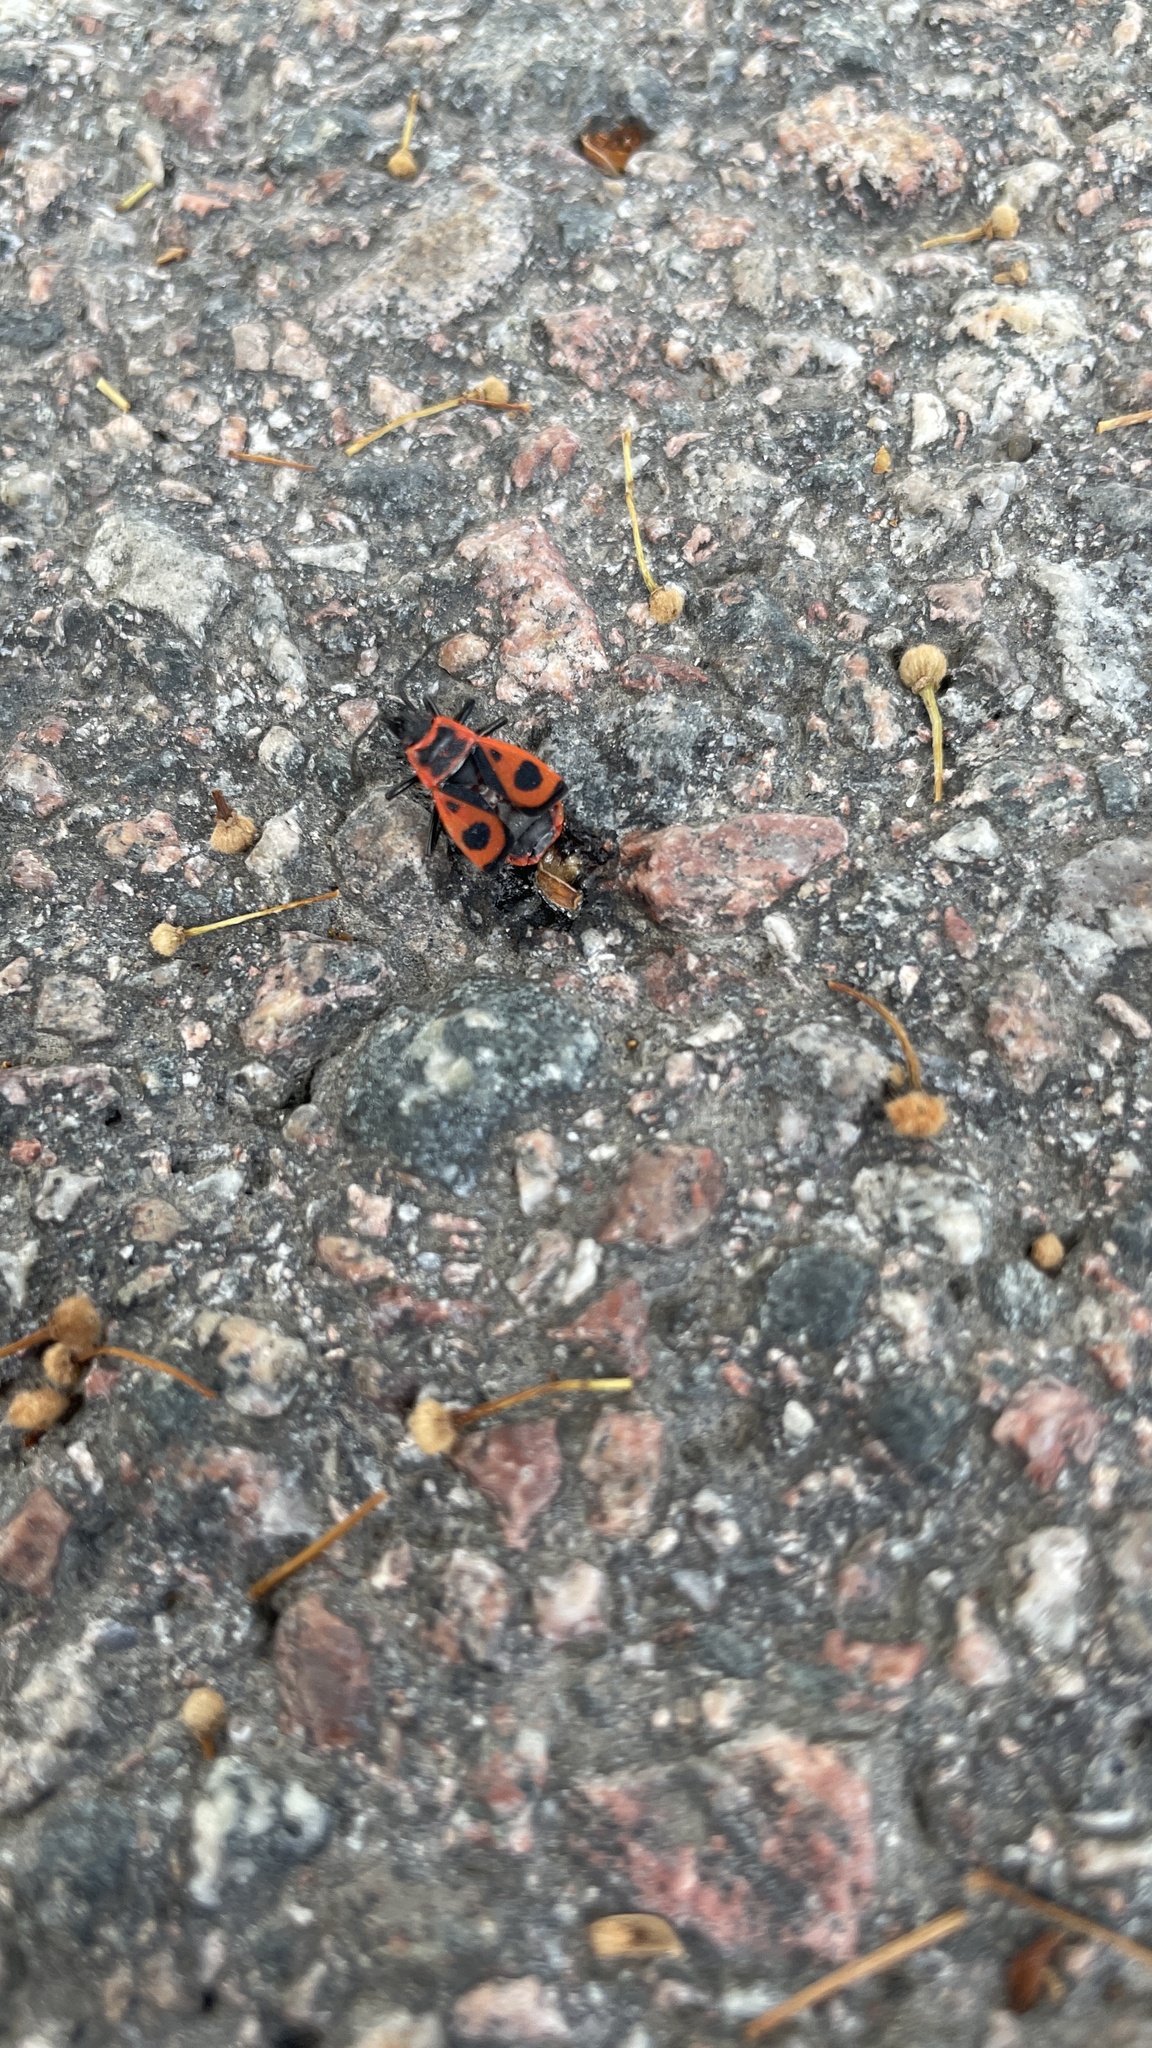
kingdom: Animalia
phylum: Arthropoda
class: Insecta
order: Hemiptera
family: Pyrrhocoridae
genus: Pyrrhocoris
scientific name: Pyrrhocoris apterus
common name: Firebug
